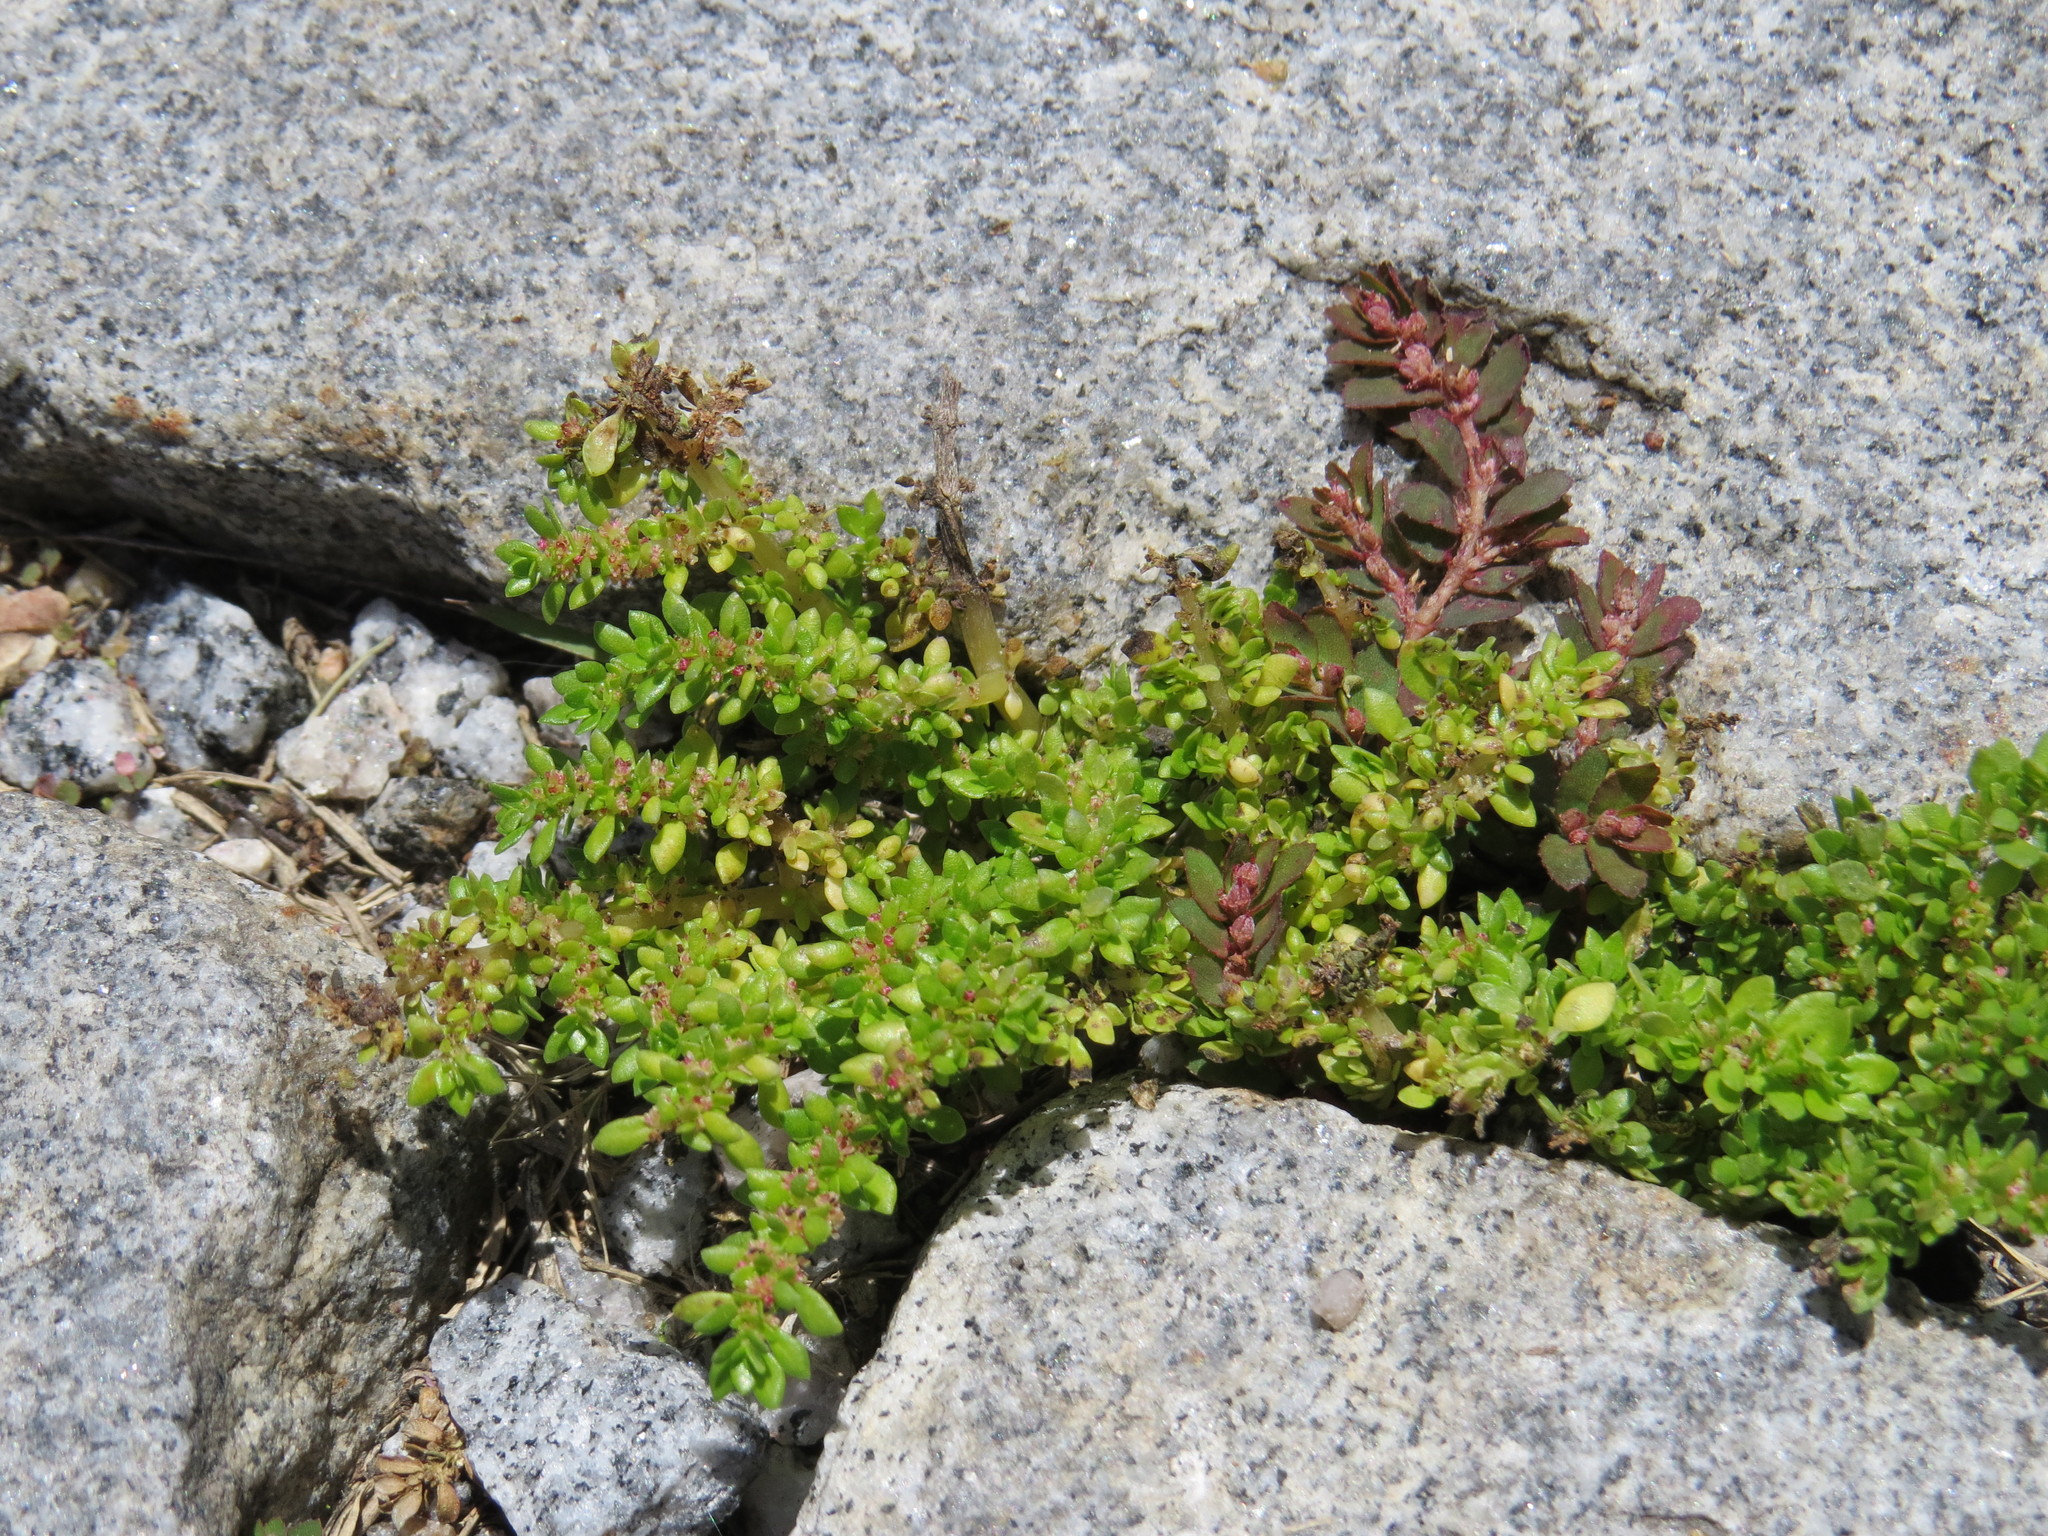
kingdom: Plantae
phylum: Tracheophyta
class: Magnoliopsida
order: Rosales
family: Urticaceae
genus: Pilea
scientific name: Pilea microphylla
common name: Artillery-plant
